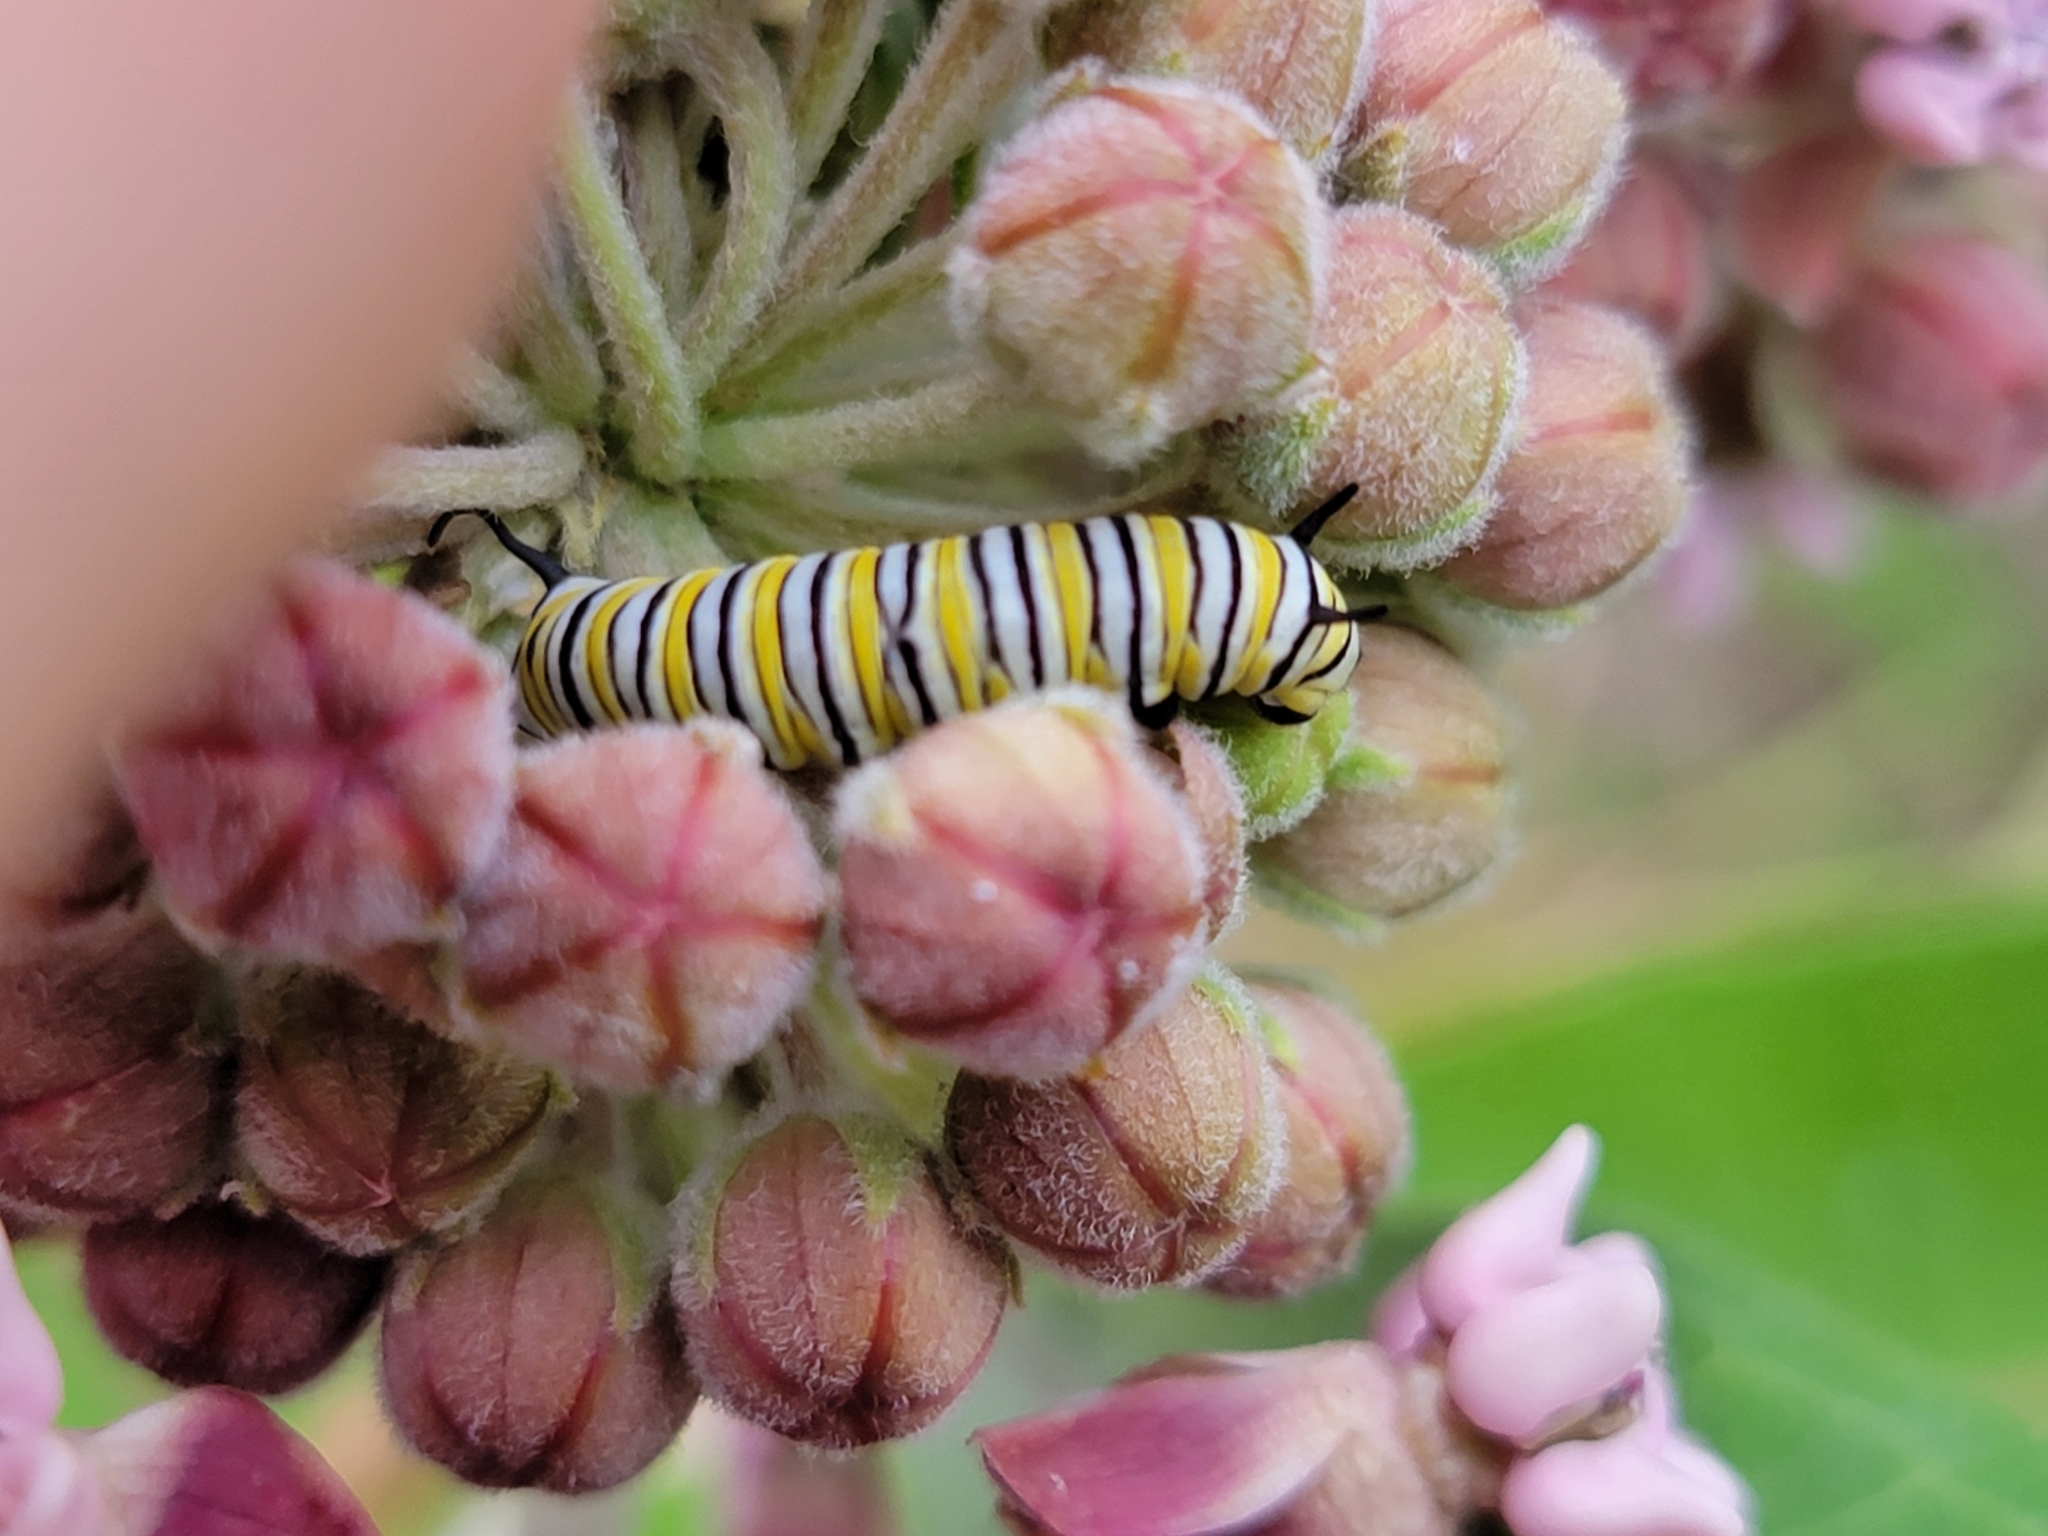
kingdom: Animalia
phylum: Arthropoda
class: Insecta
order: Lepidoptera
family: Nymphalidae
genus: Danaus
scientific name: Danaus plexippus
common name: Monarch
